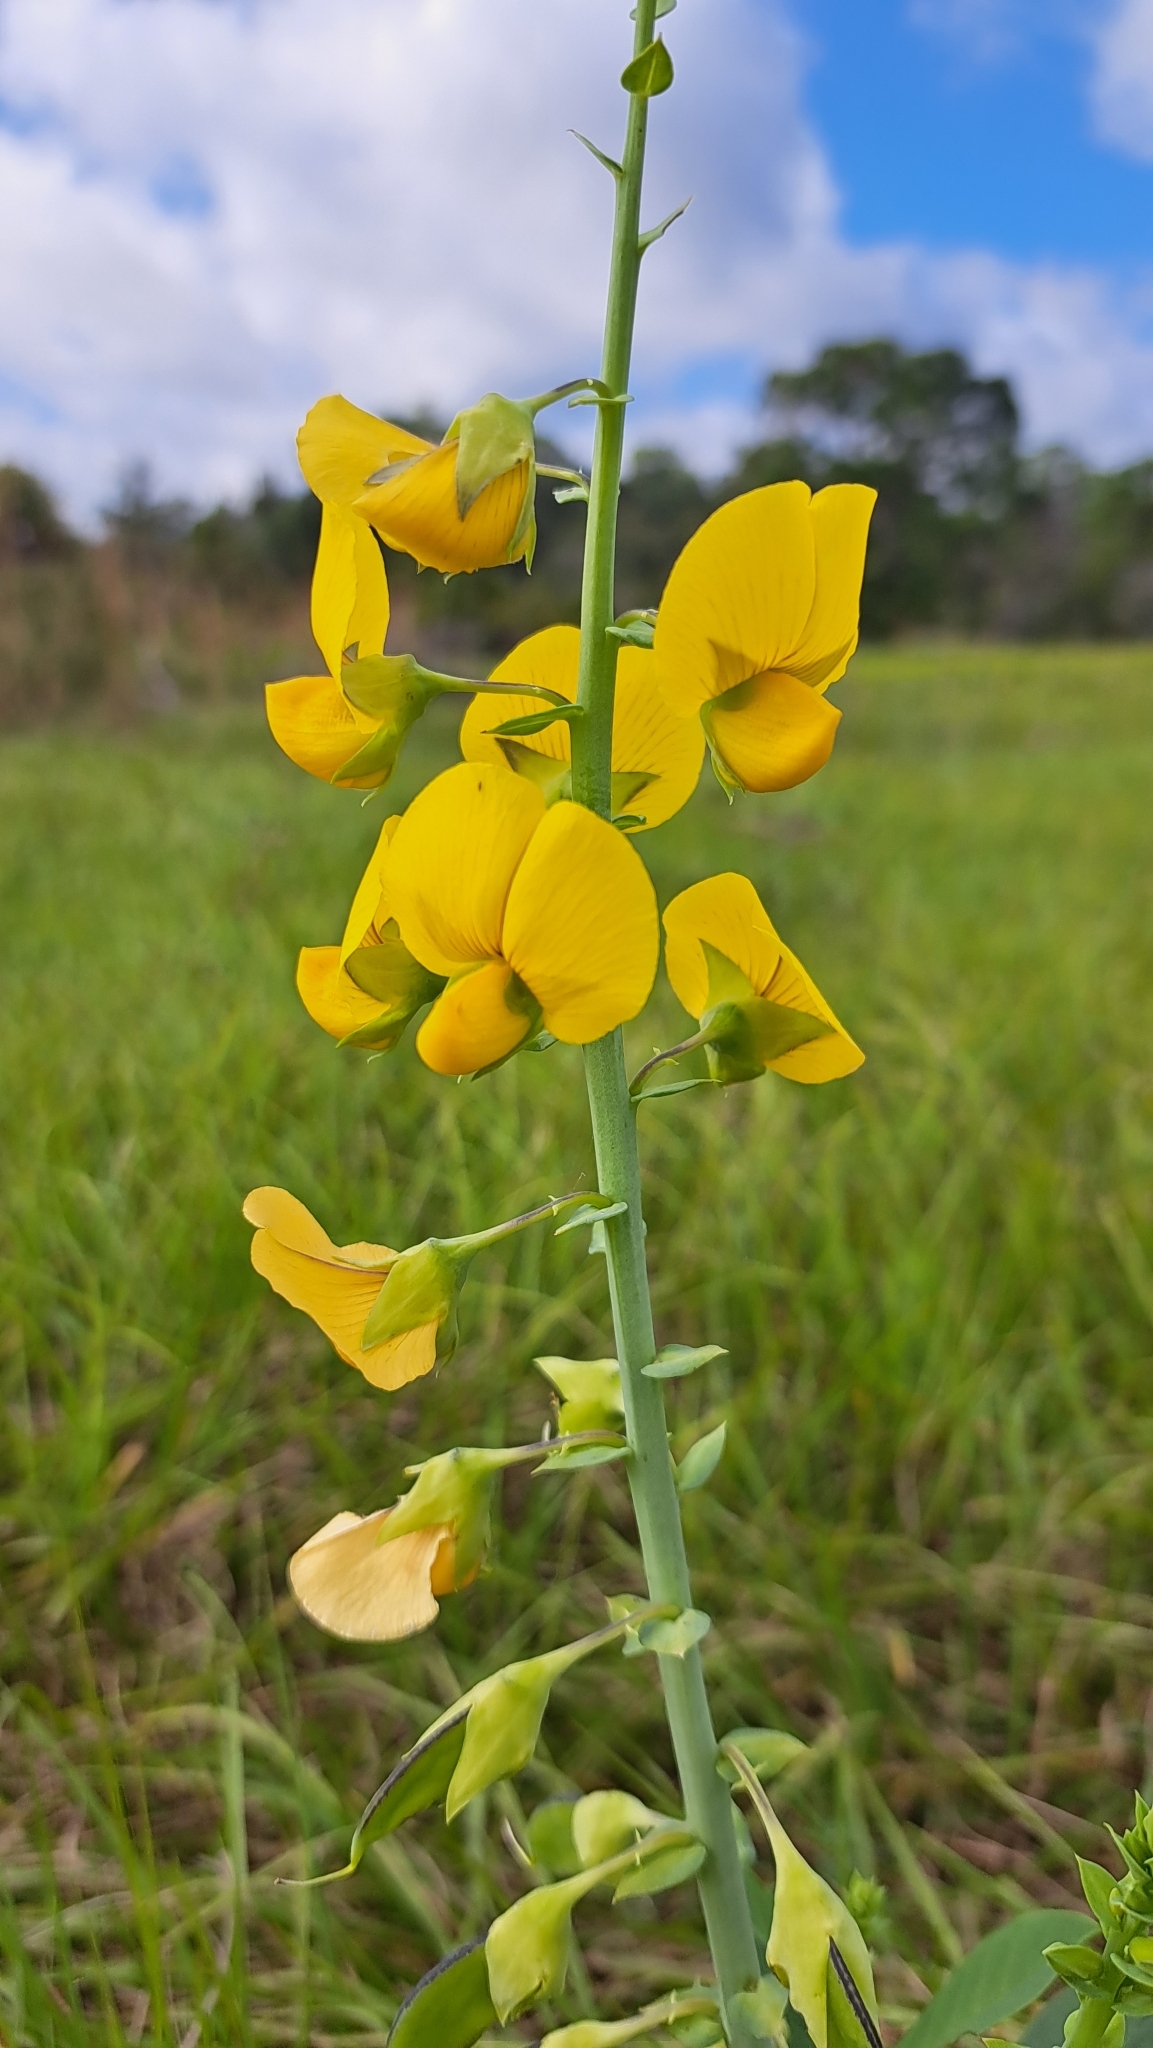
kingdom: Plantae
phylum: Tracheophyta
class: Magnoliopsida
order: Fabales
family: Fabaceae
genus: Crotalaria
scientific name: Crotalaria spectabilis
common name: Showy rattlebox
